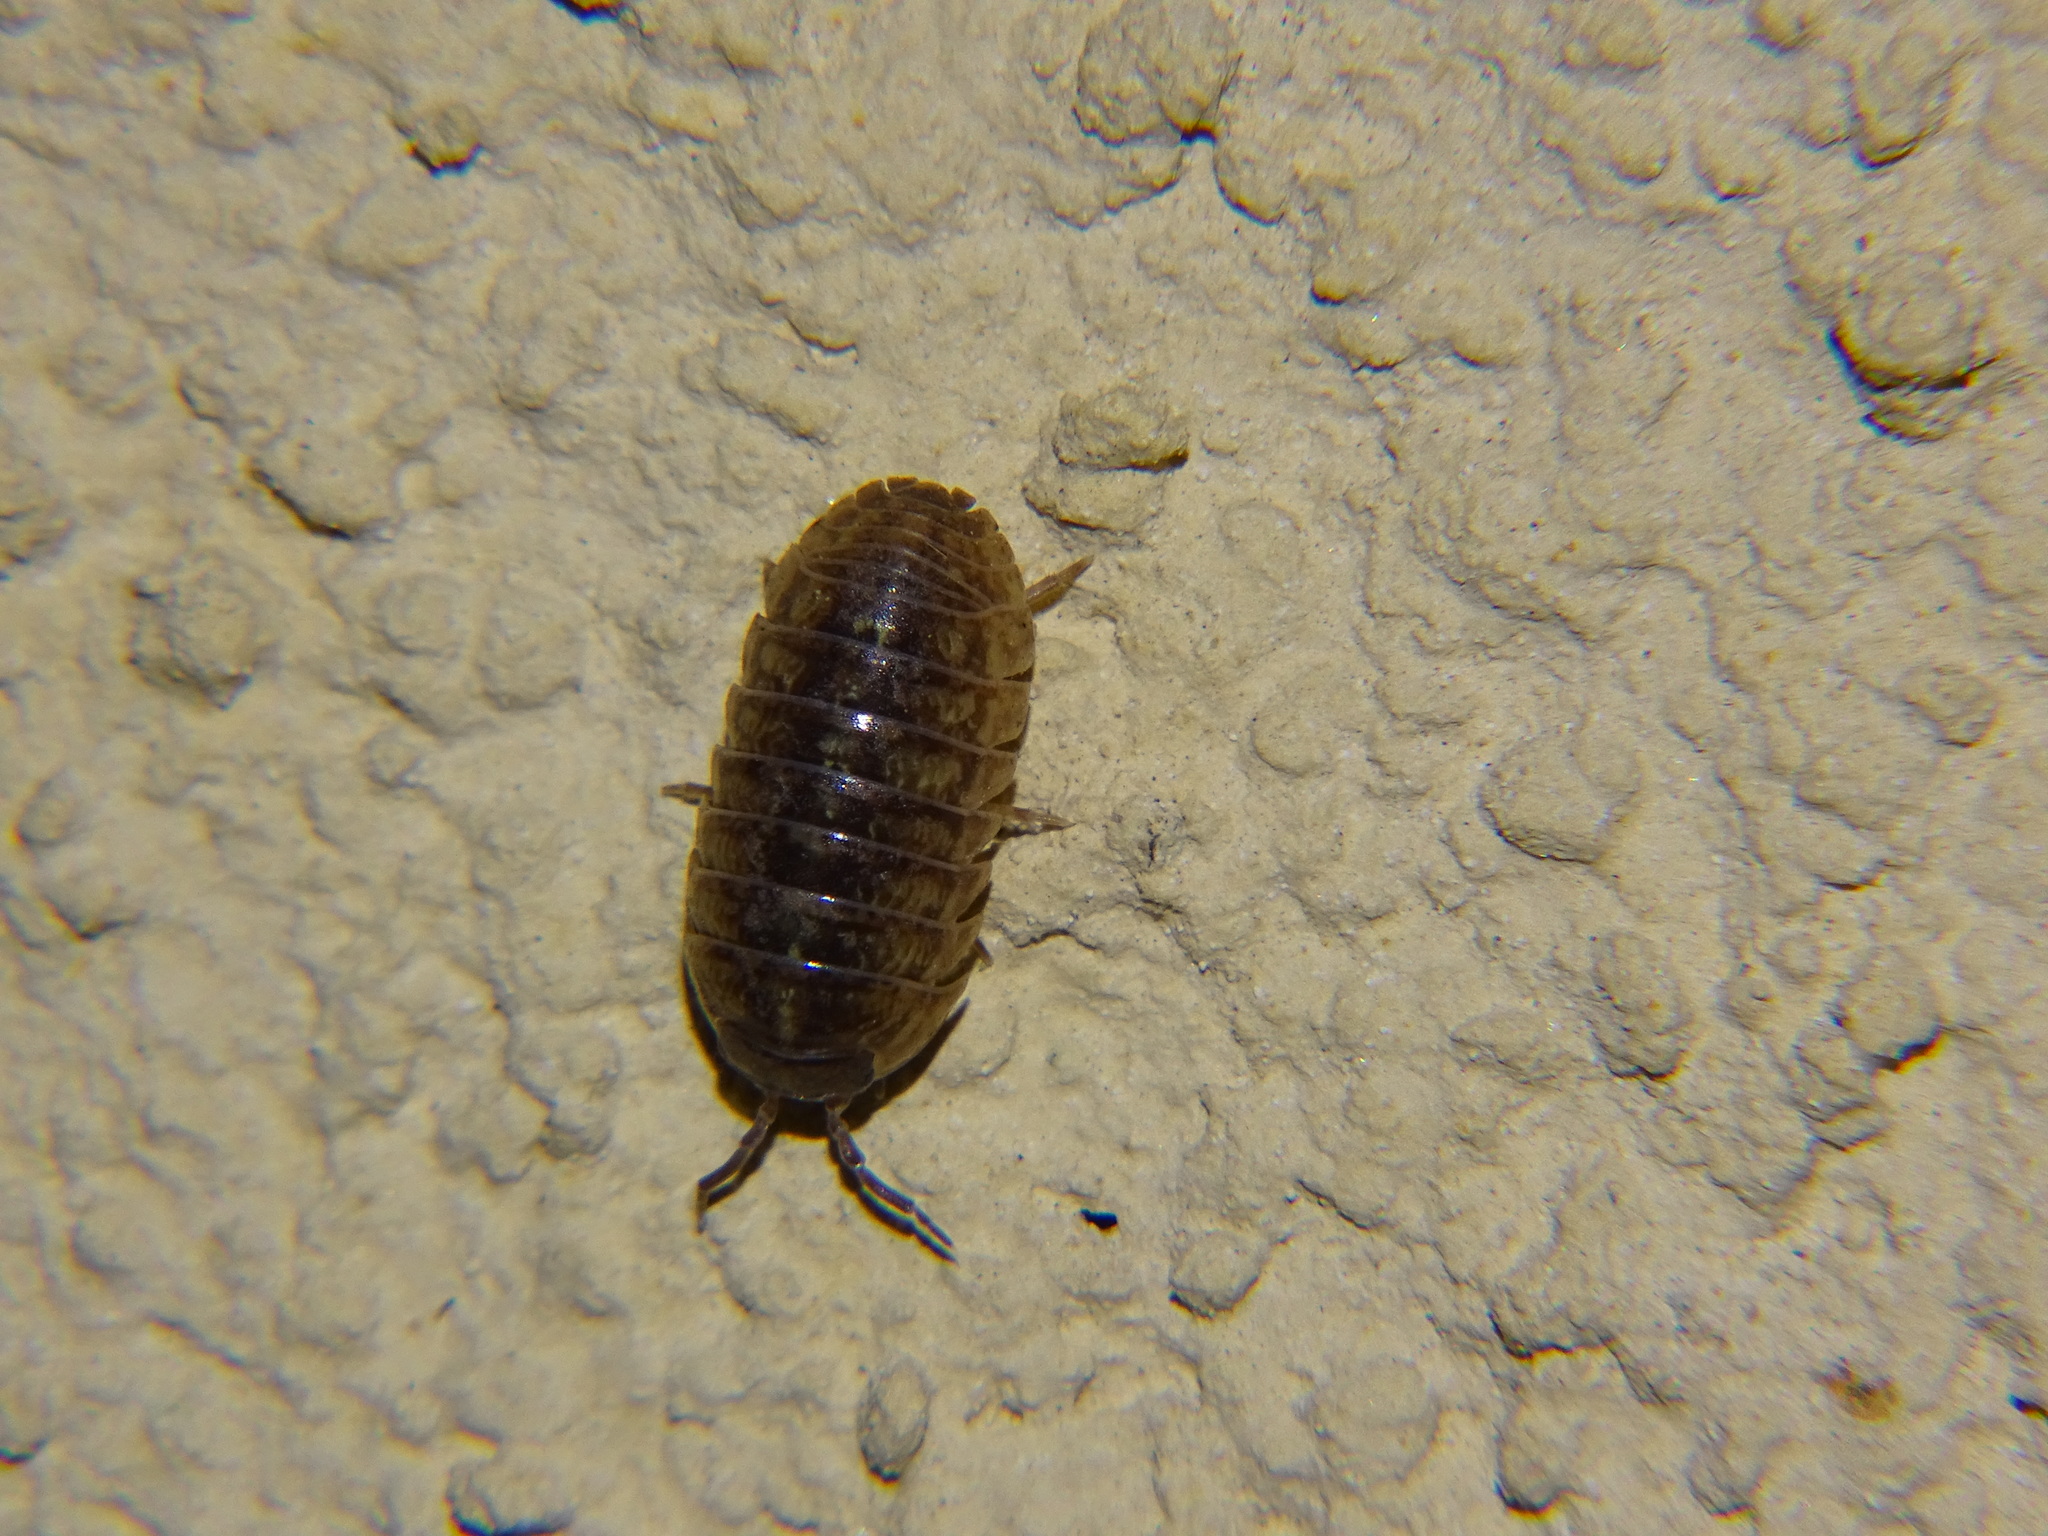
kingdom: Animalia
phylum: Arthropoda
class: Malacostraca
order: Isopoda
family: Armadillidiidae
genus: Armadillidium
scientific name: Armadillidium vulgare
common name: Common pill woodlouse
